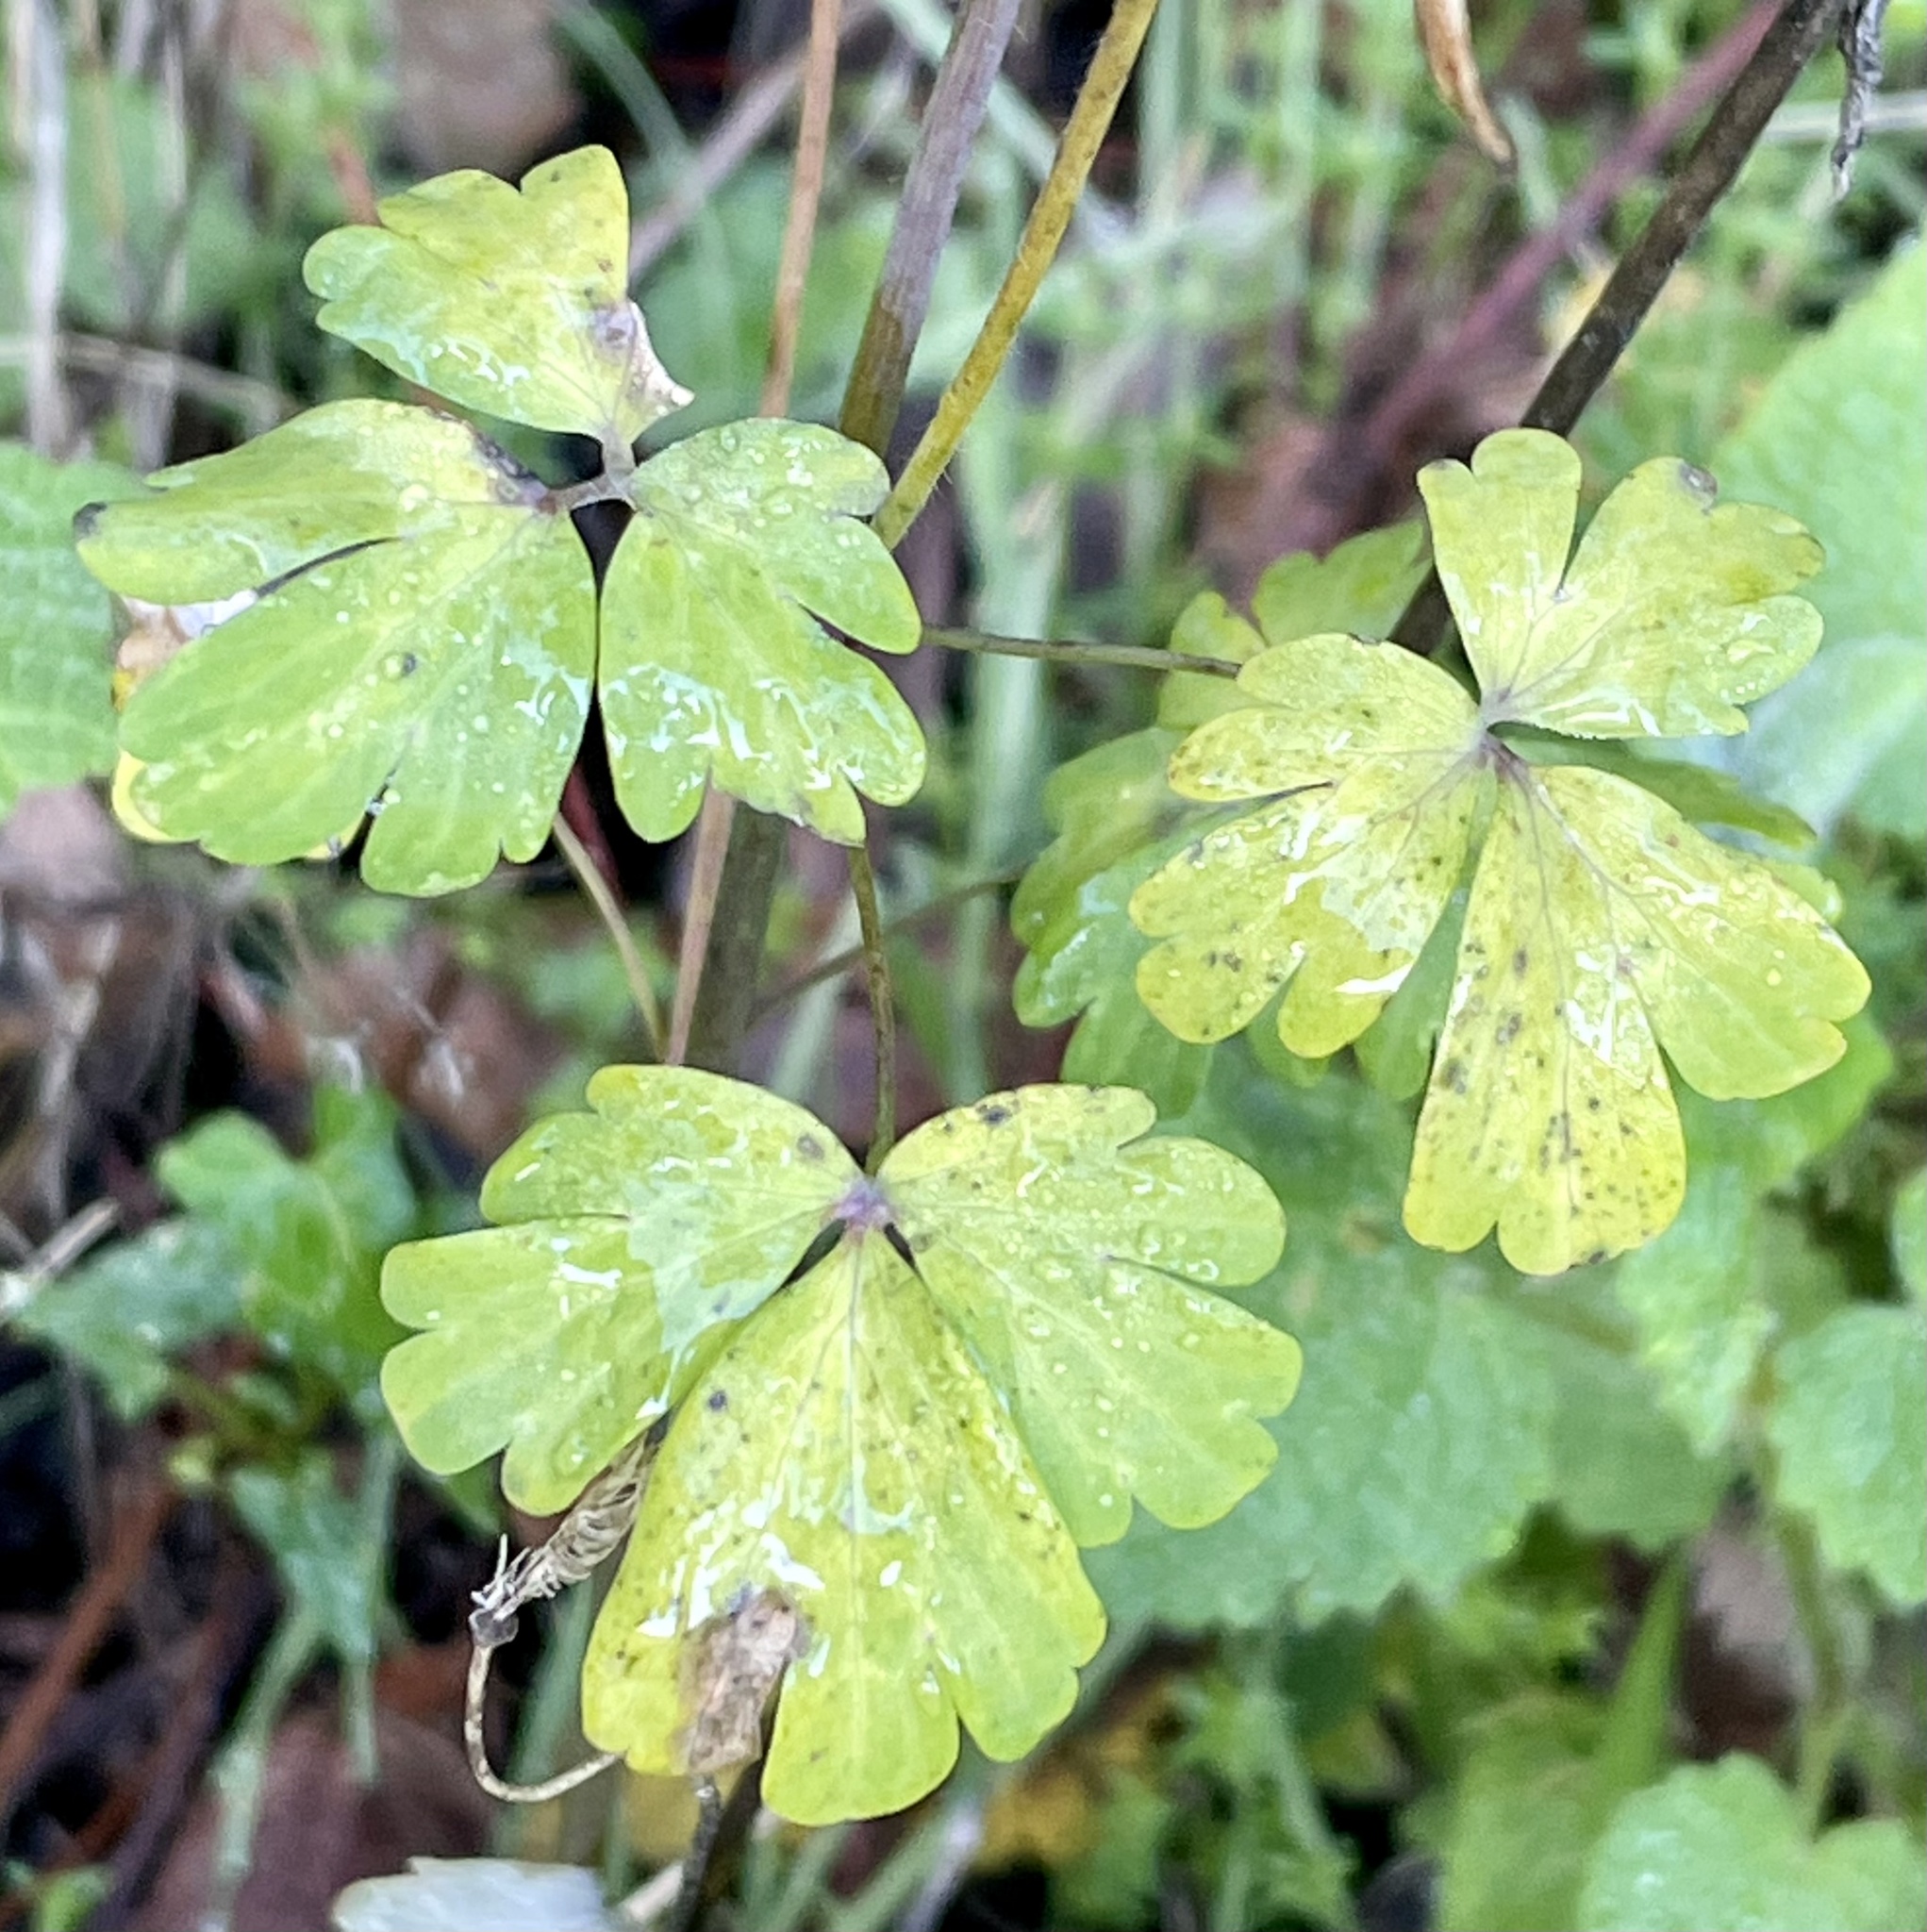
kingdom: Plantae
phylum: Tracheophyta
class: Magnoliopsida
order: Ranunculales
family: Ranunculaceae
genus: Aquilegia
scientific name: Aquilegia formosa
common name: Sitka columbine
